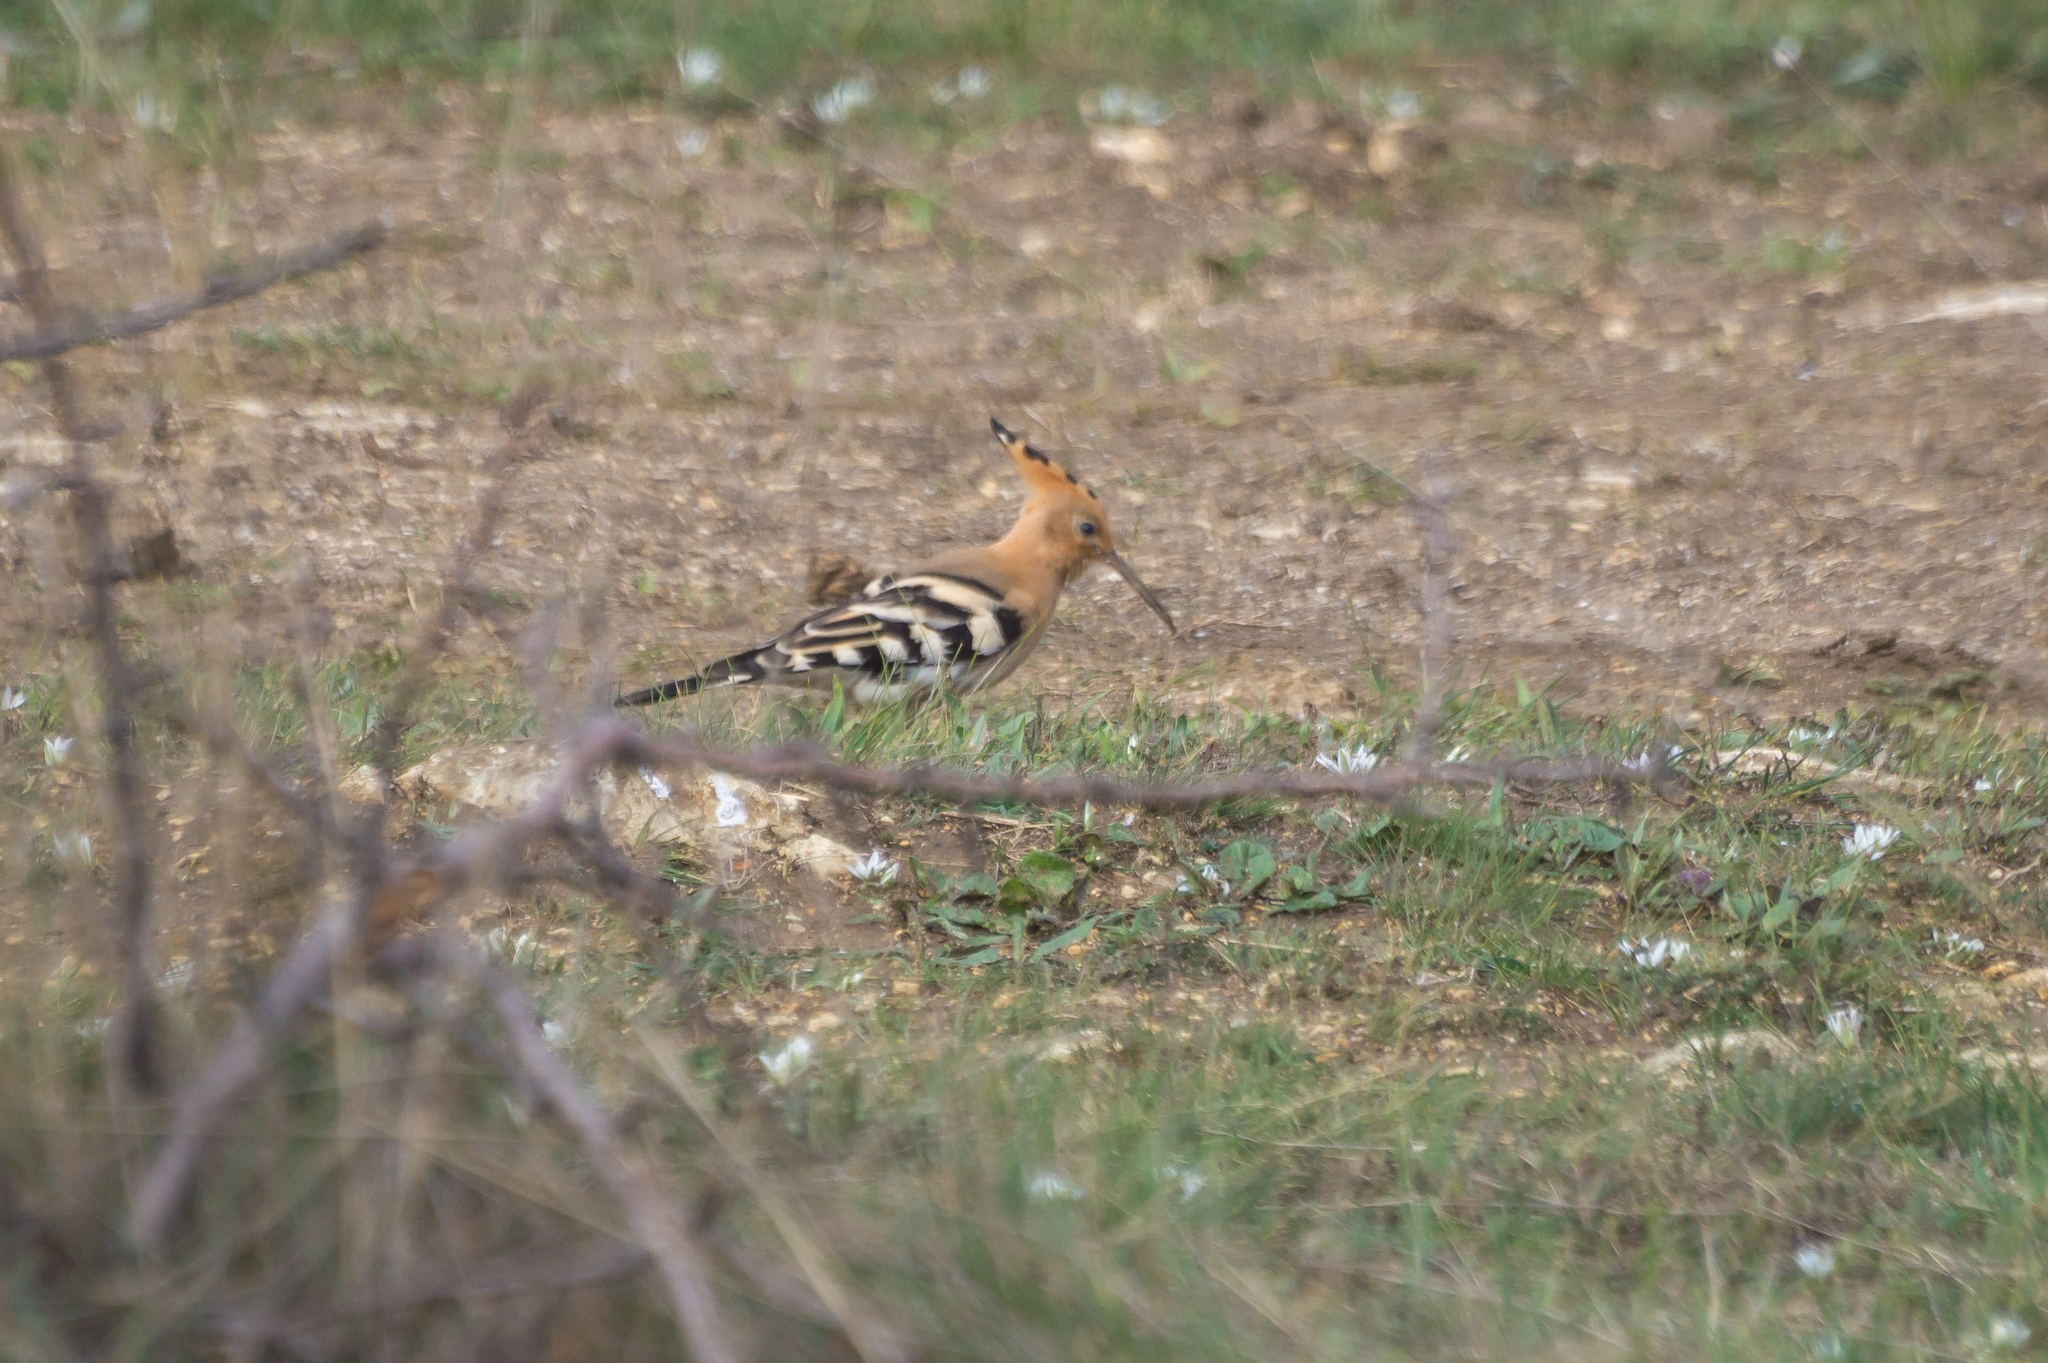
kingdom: Animalia
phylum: Chordata
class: Aves
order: Bucerotiformes
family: Upupidae
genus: Upupa
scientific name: Upupa epops
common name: Eurasian hoopoe
